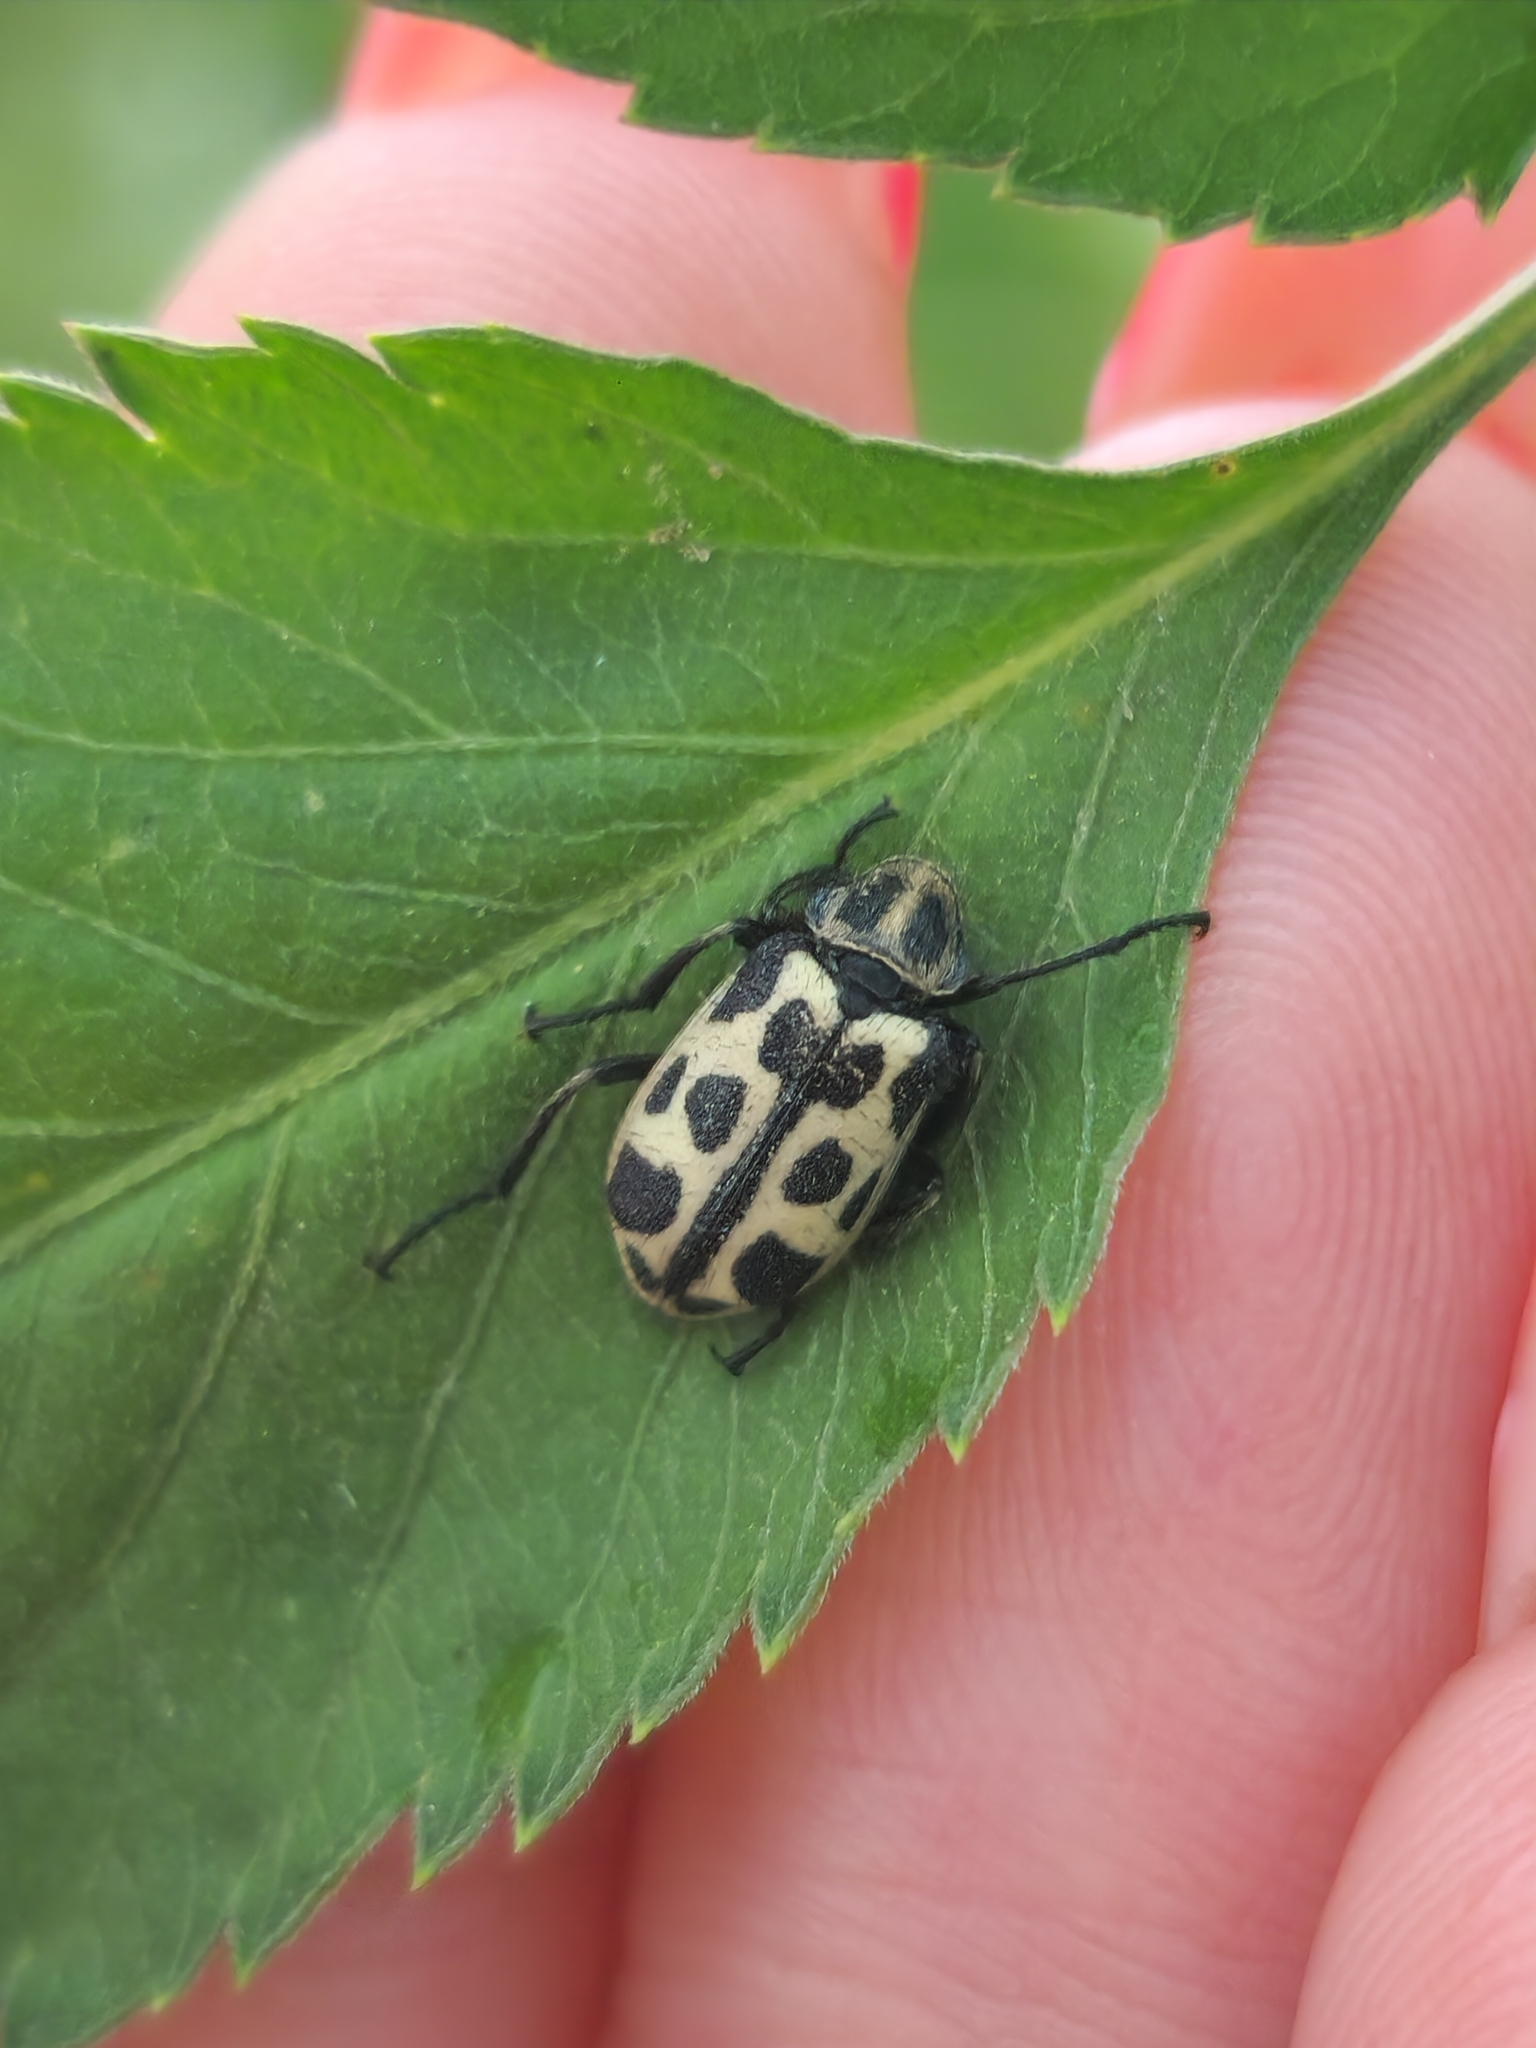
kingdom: Animalia
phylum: Arthropoda
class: Insecta
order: Coleoptera
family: Melyridae
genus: Astylus
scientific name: Astylus atromaculatus
